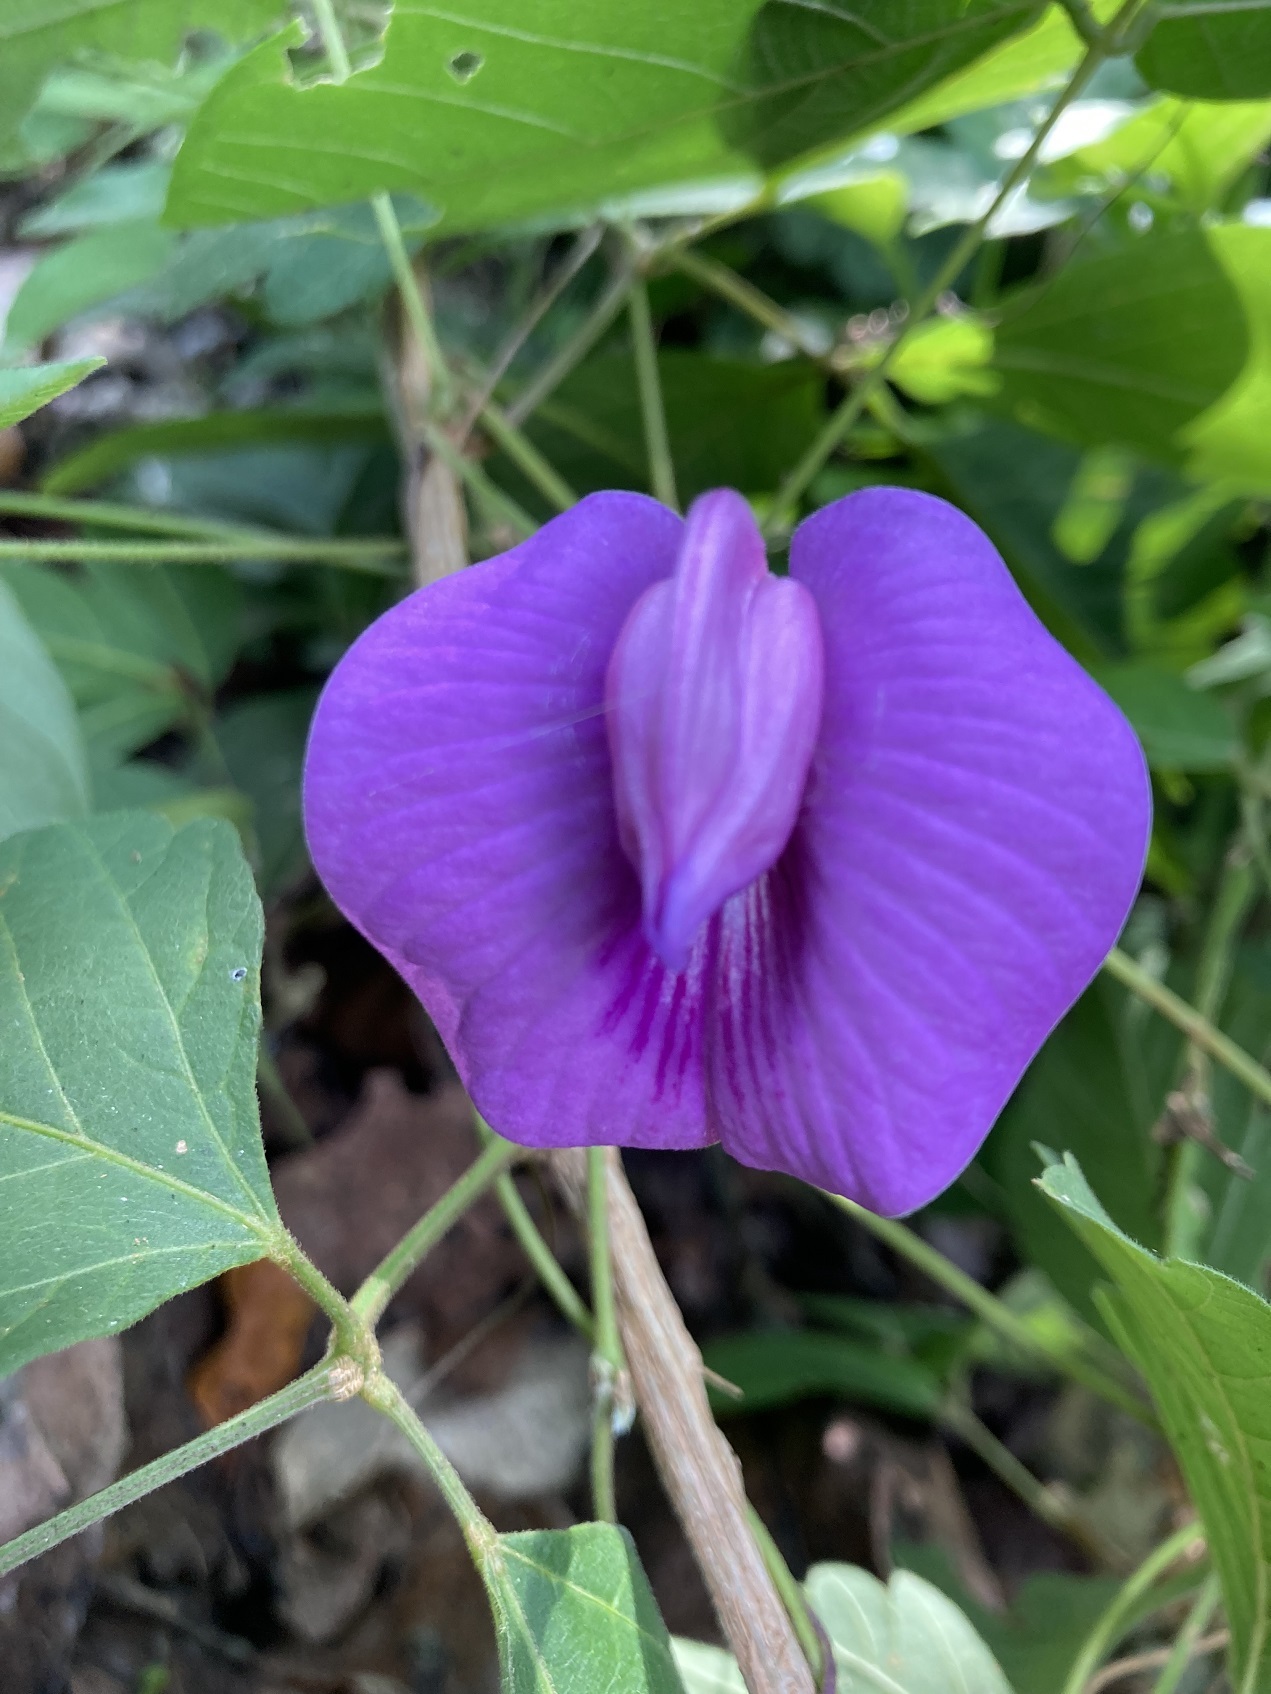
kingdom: Plantae
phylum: Tracheophyta
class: Magnoliopsida
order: Fabales
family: Fabaceae
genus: Centrosema
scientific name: Centrosema virginianum
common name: Butterfly-pea
